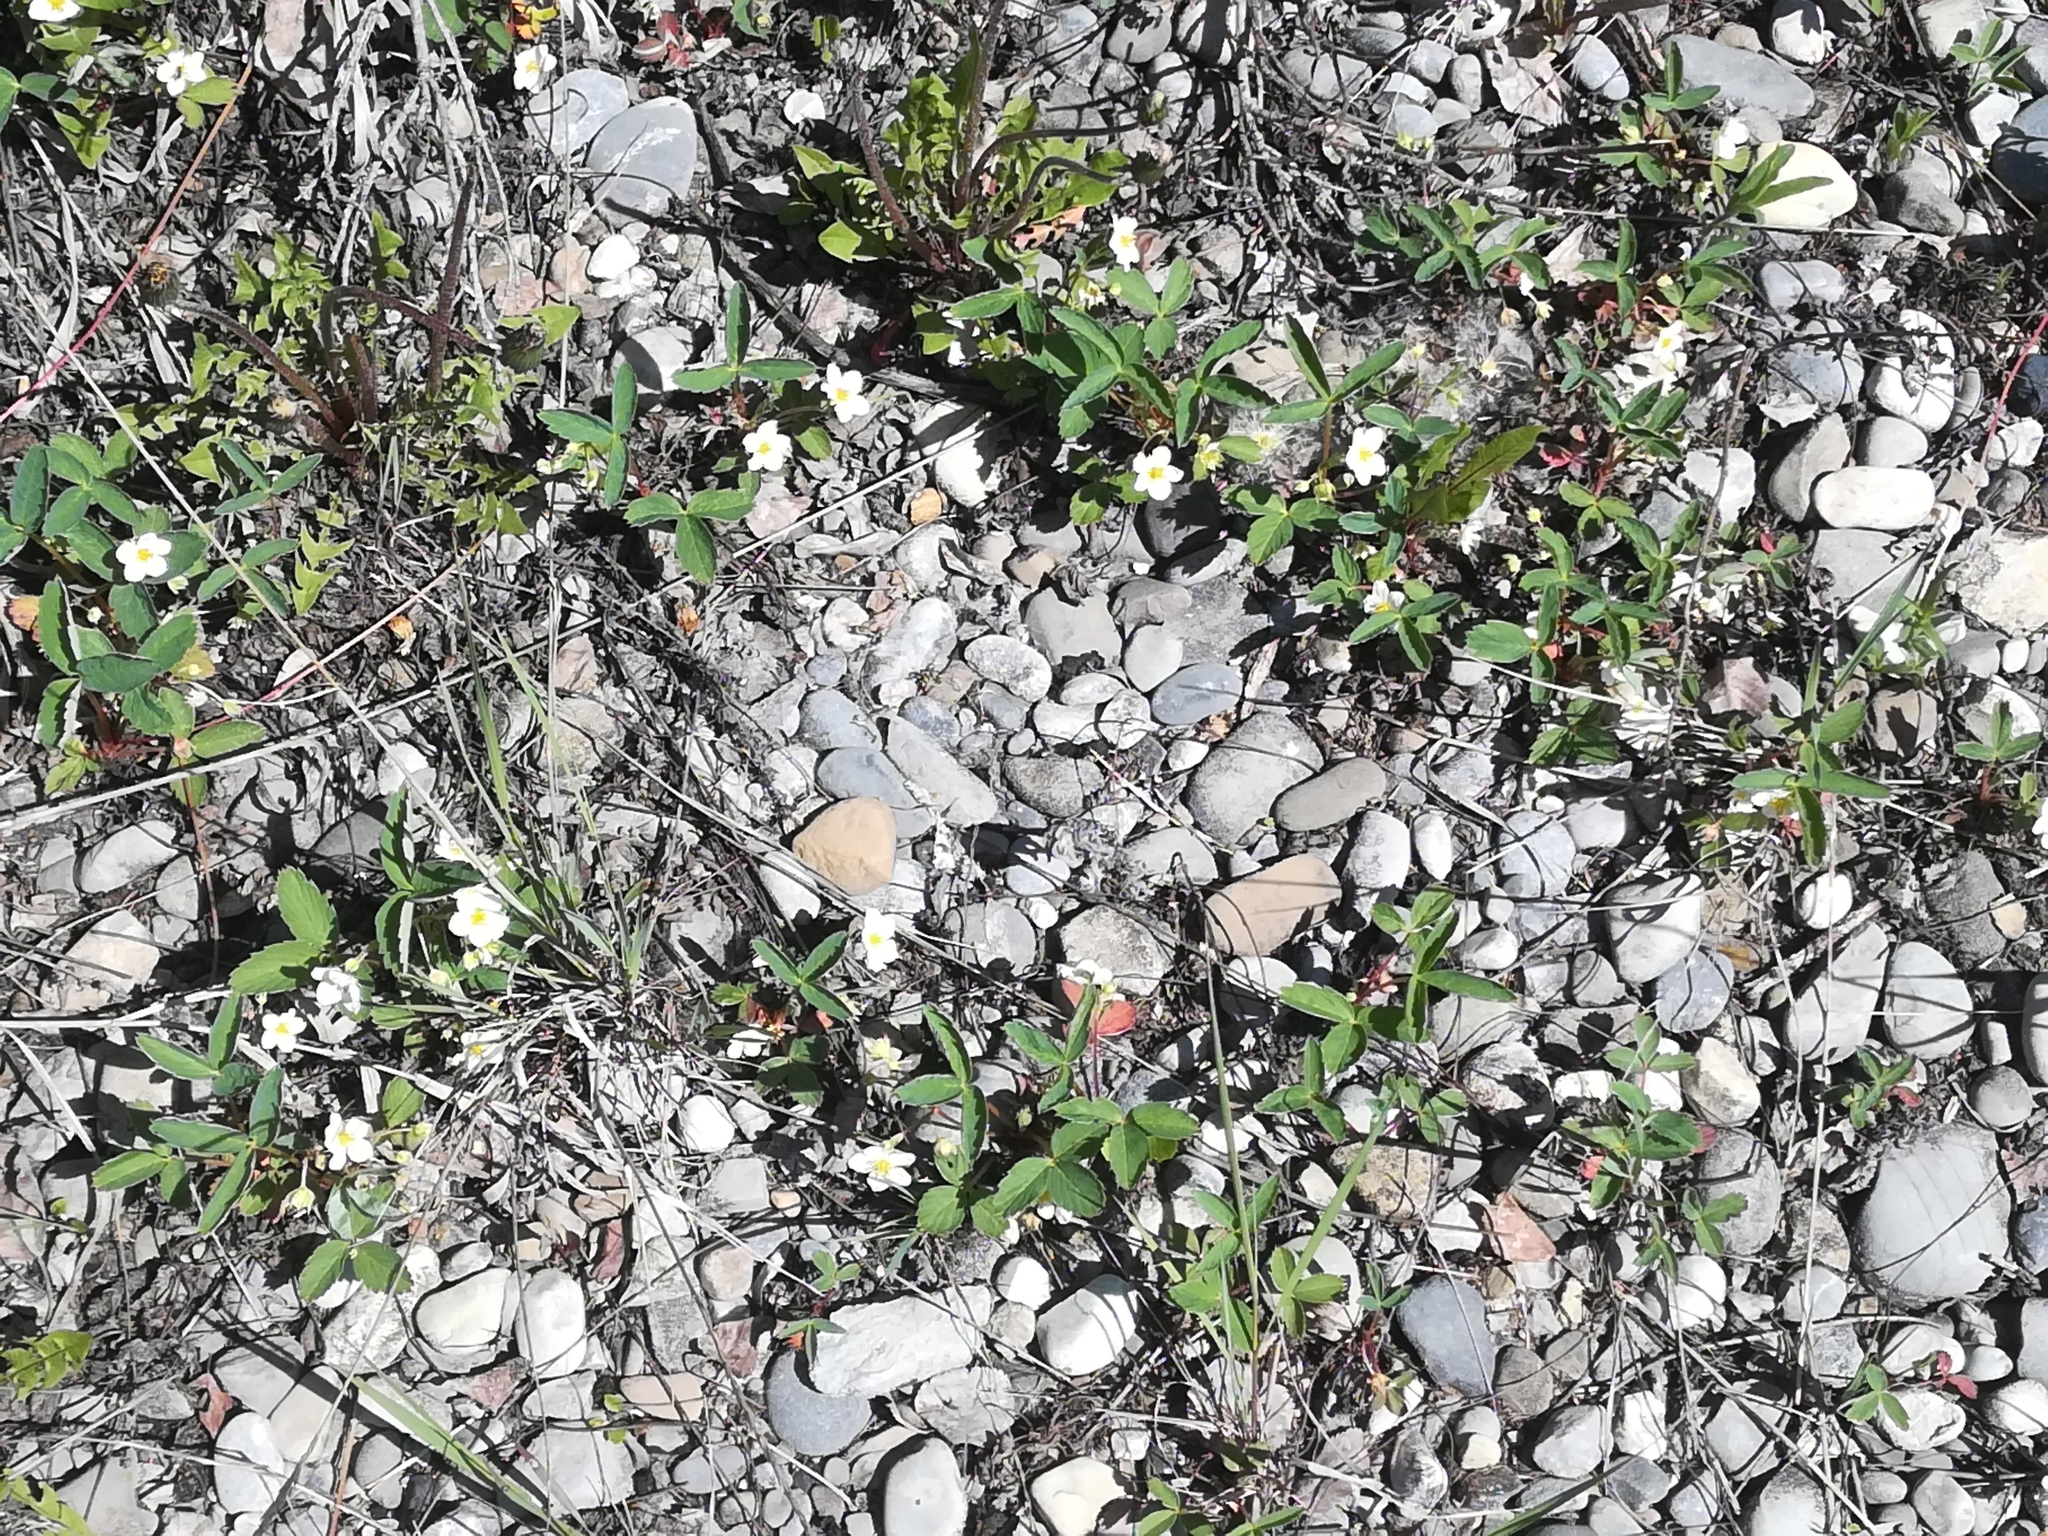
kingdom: Plantae
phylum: Tracheophyta
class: Magnoliopsida
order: Rosales
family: Rosaceae
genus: Fragaria
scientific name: Fragaria virginiana
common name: Thickleaved wild strawberry
